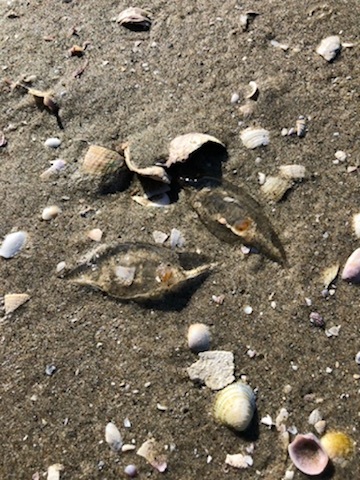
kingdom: Animalia
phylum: Chordata
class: Thaliacea
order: Salpida
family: Salpidae
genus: Soestia
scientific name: Soestia zonaria
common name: Deepsea solitary salp
